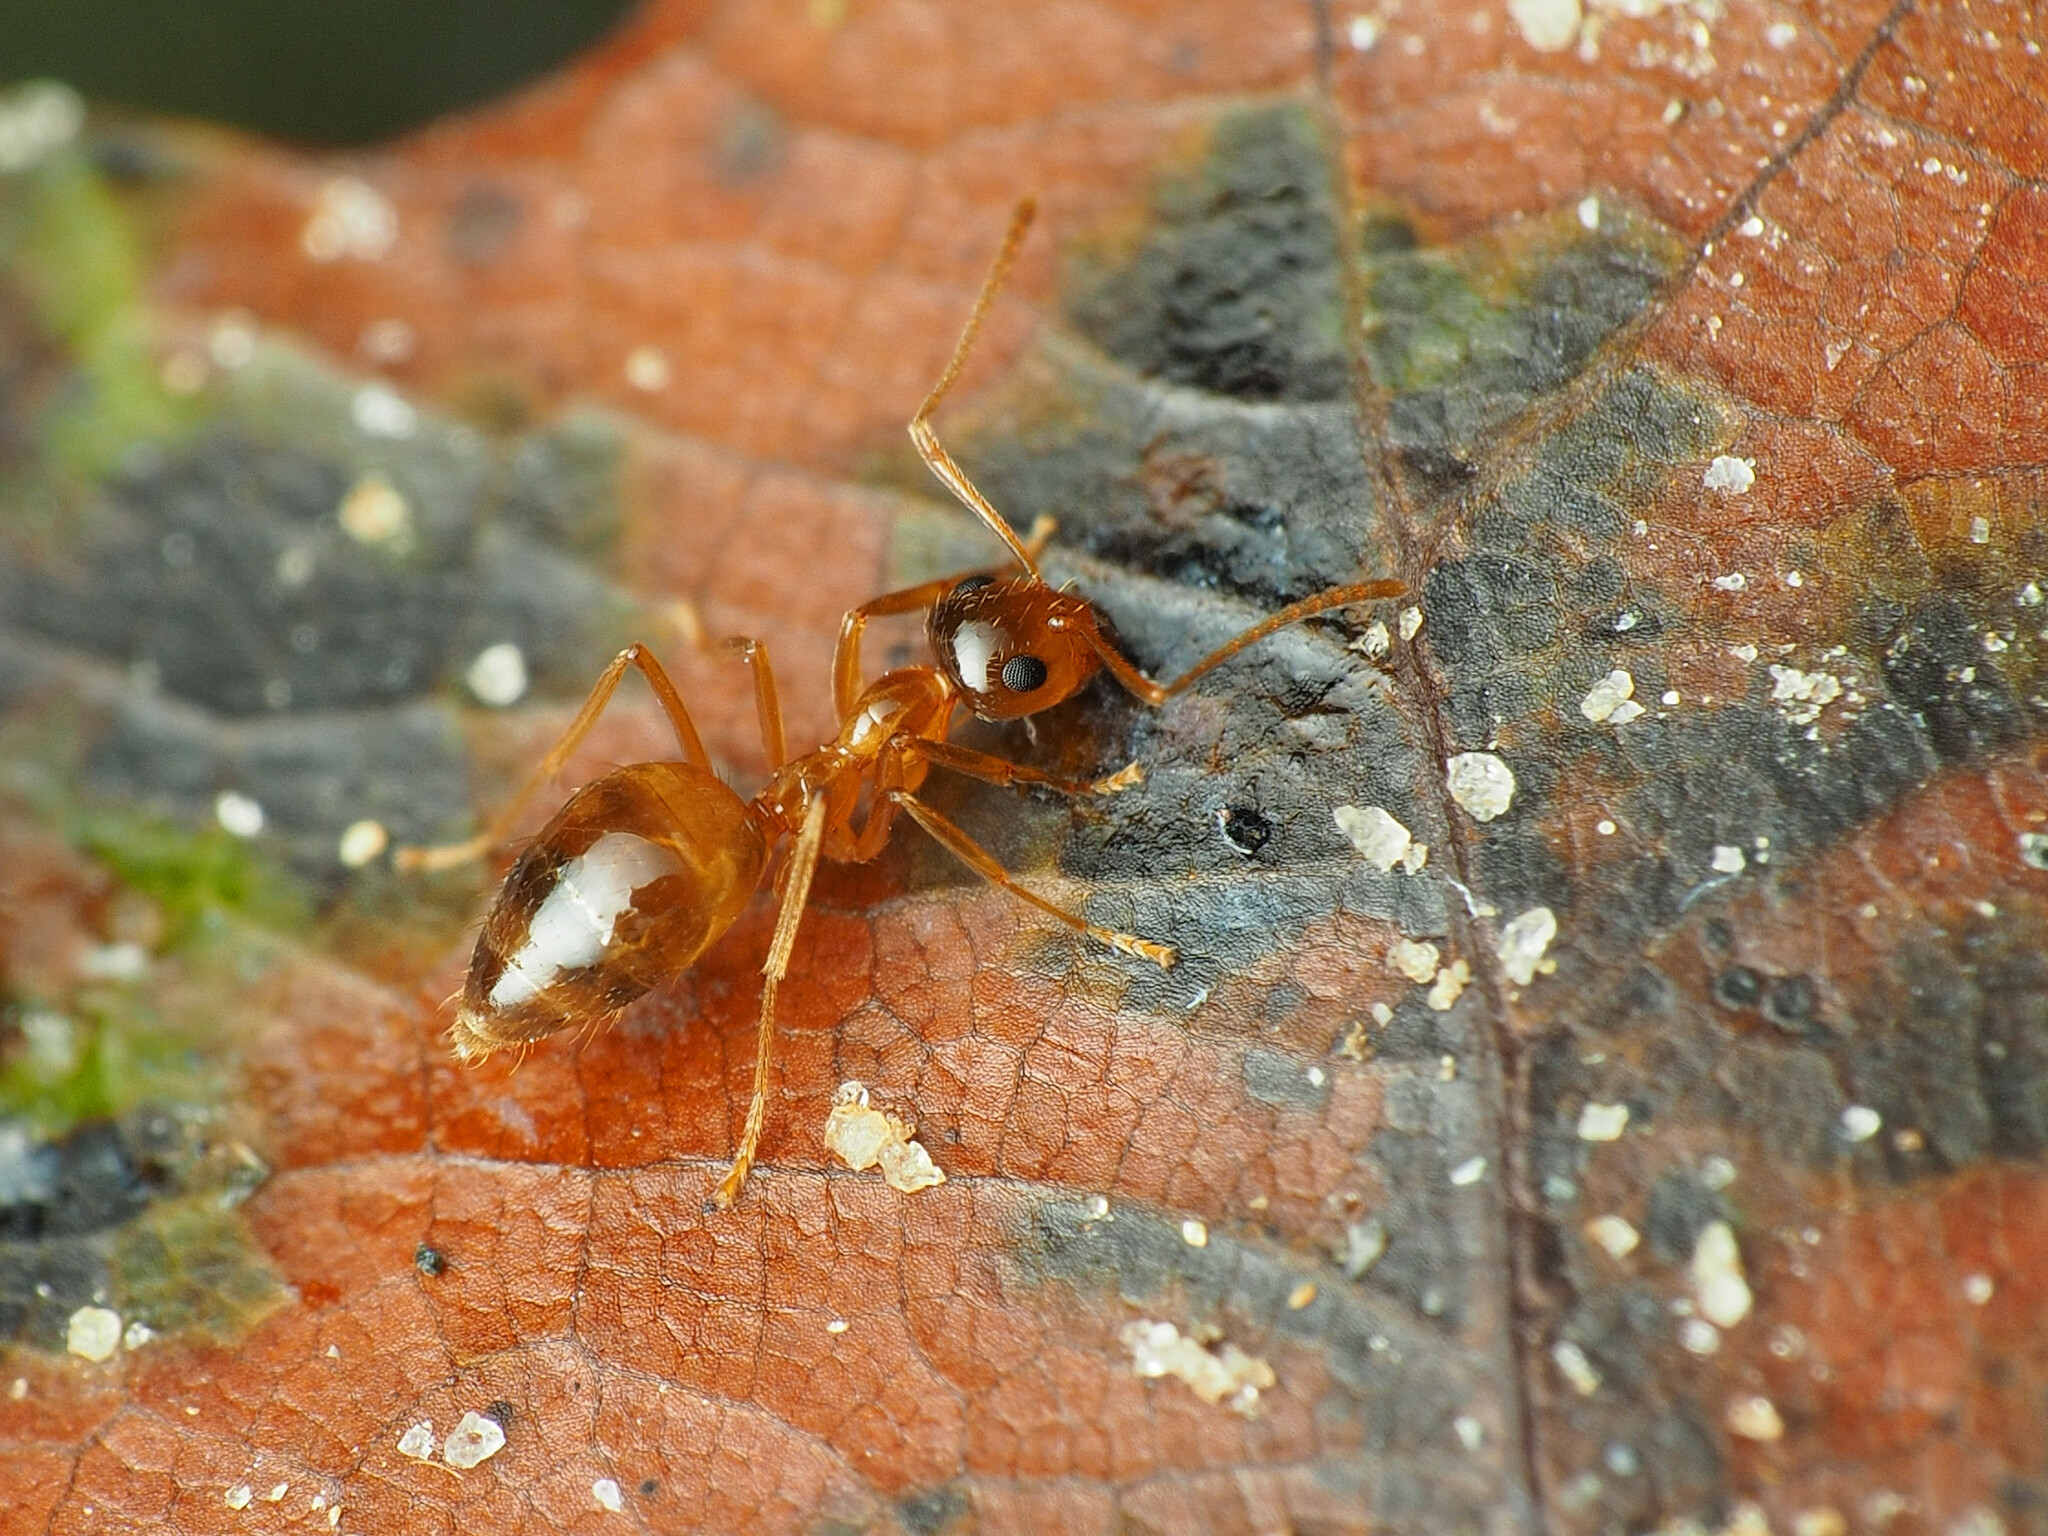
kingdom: Animalia
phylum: Arthropoda
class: Insecta
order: Hymenoptera
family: Formicidae
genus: Prenolepis
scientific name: Prenolepis imparis
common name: Small honey ant
